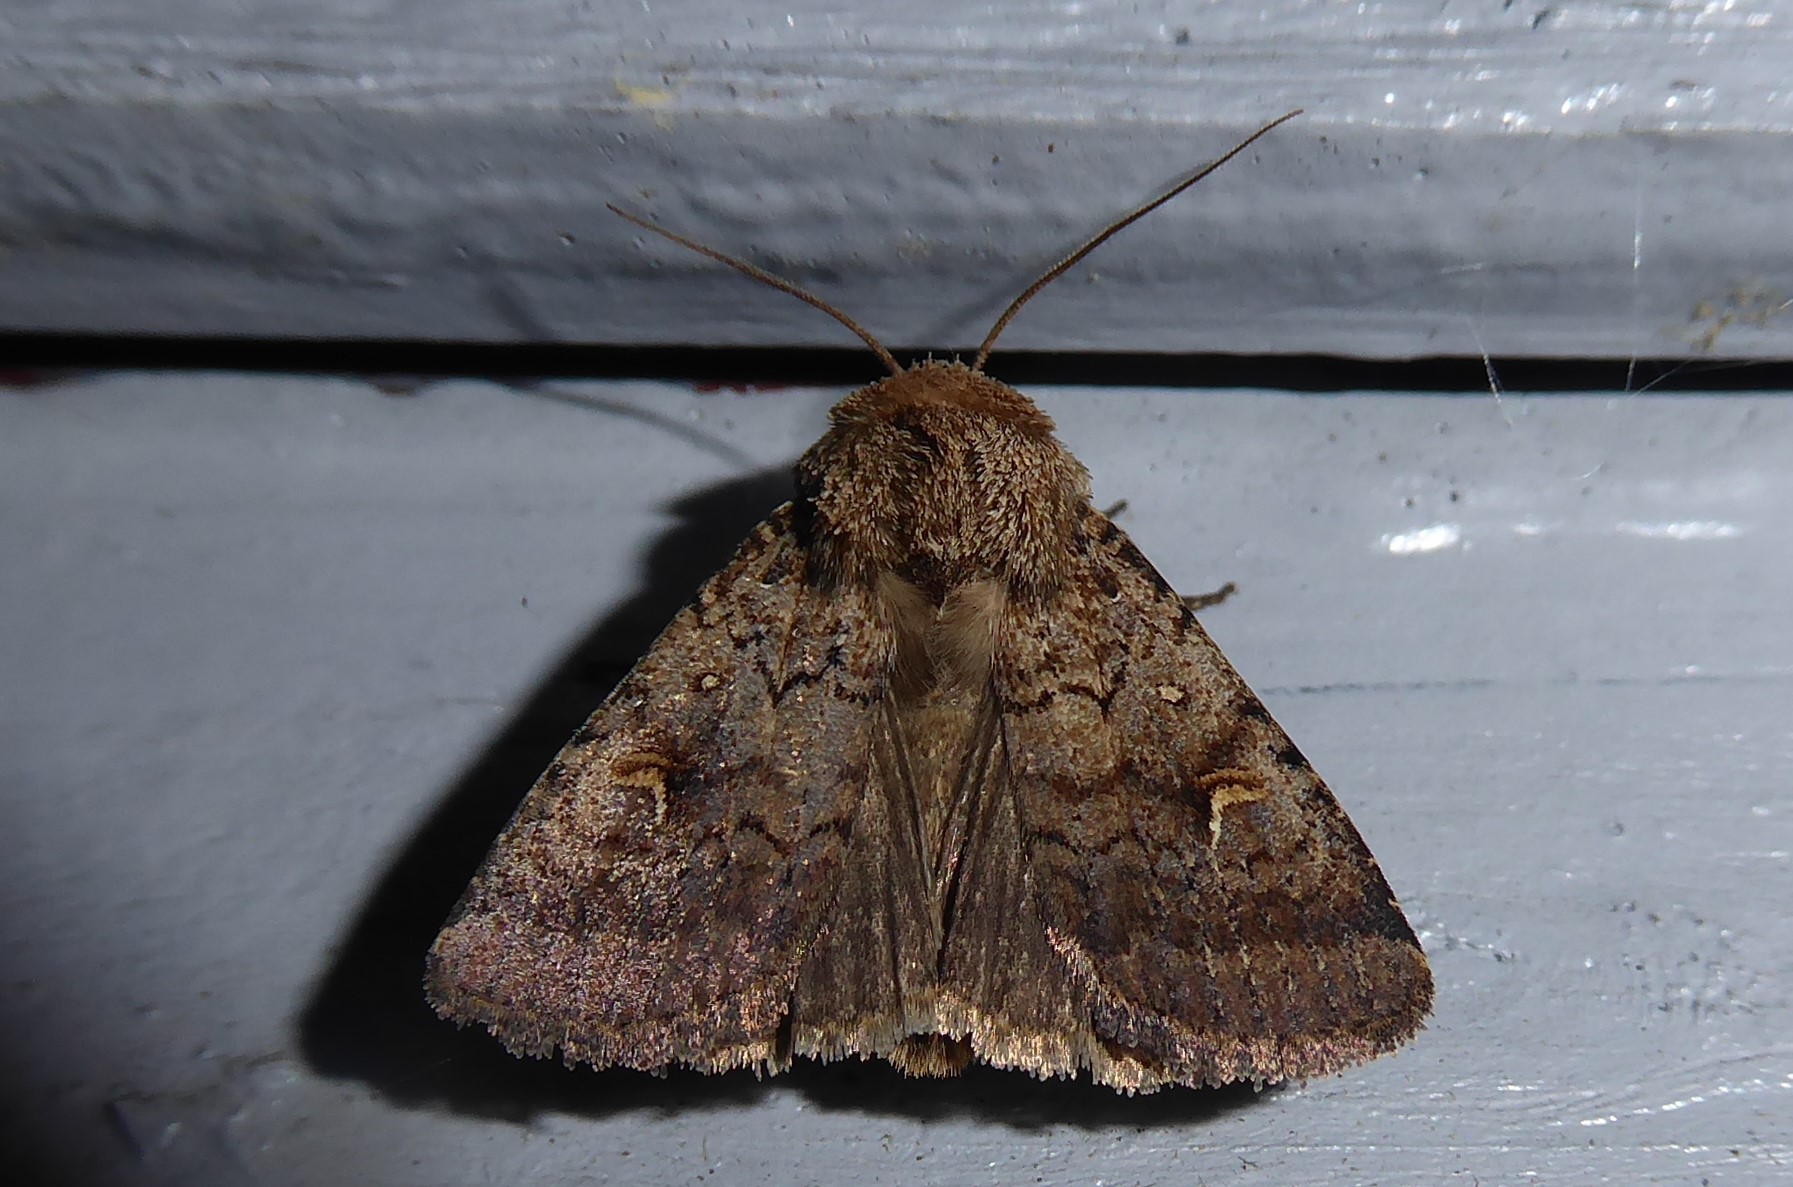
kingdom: Animalia
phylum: Arthropoda
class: Insecta
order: Lepidoptera
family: Noctuidae
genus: Proteuxoa
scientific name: Proteuxoa tetronycha
